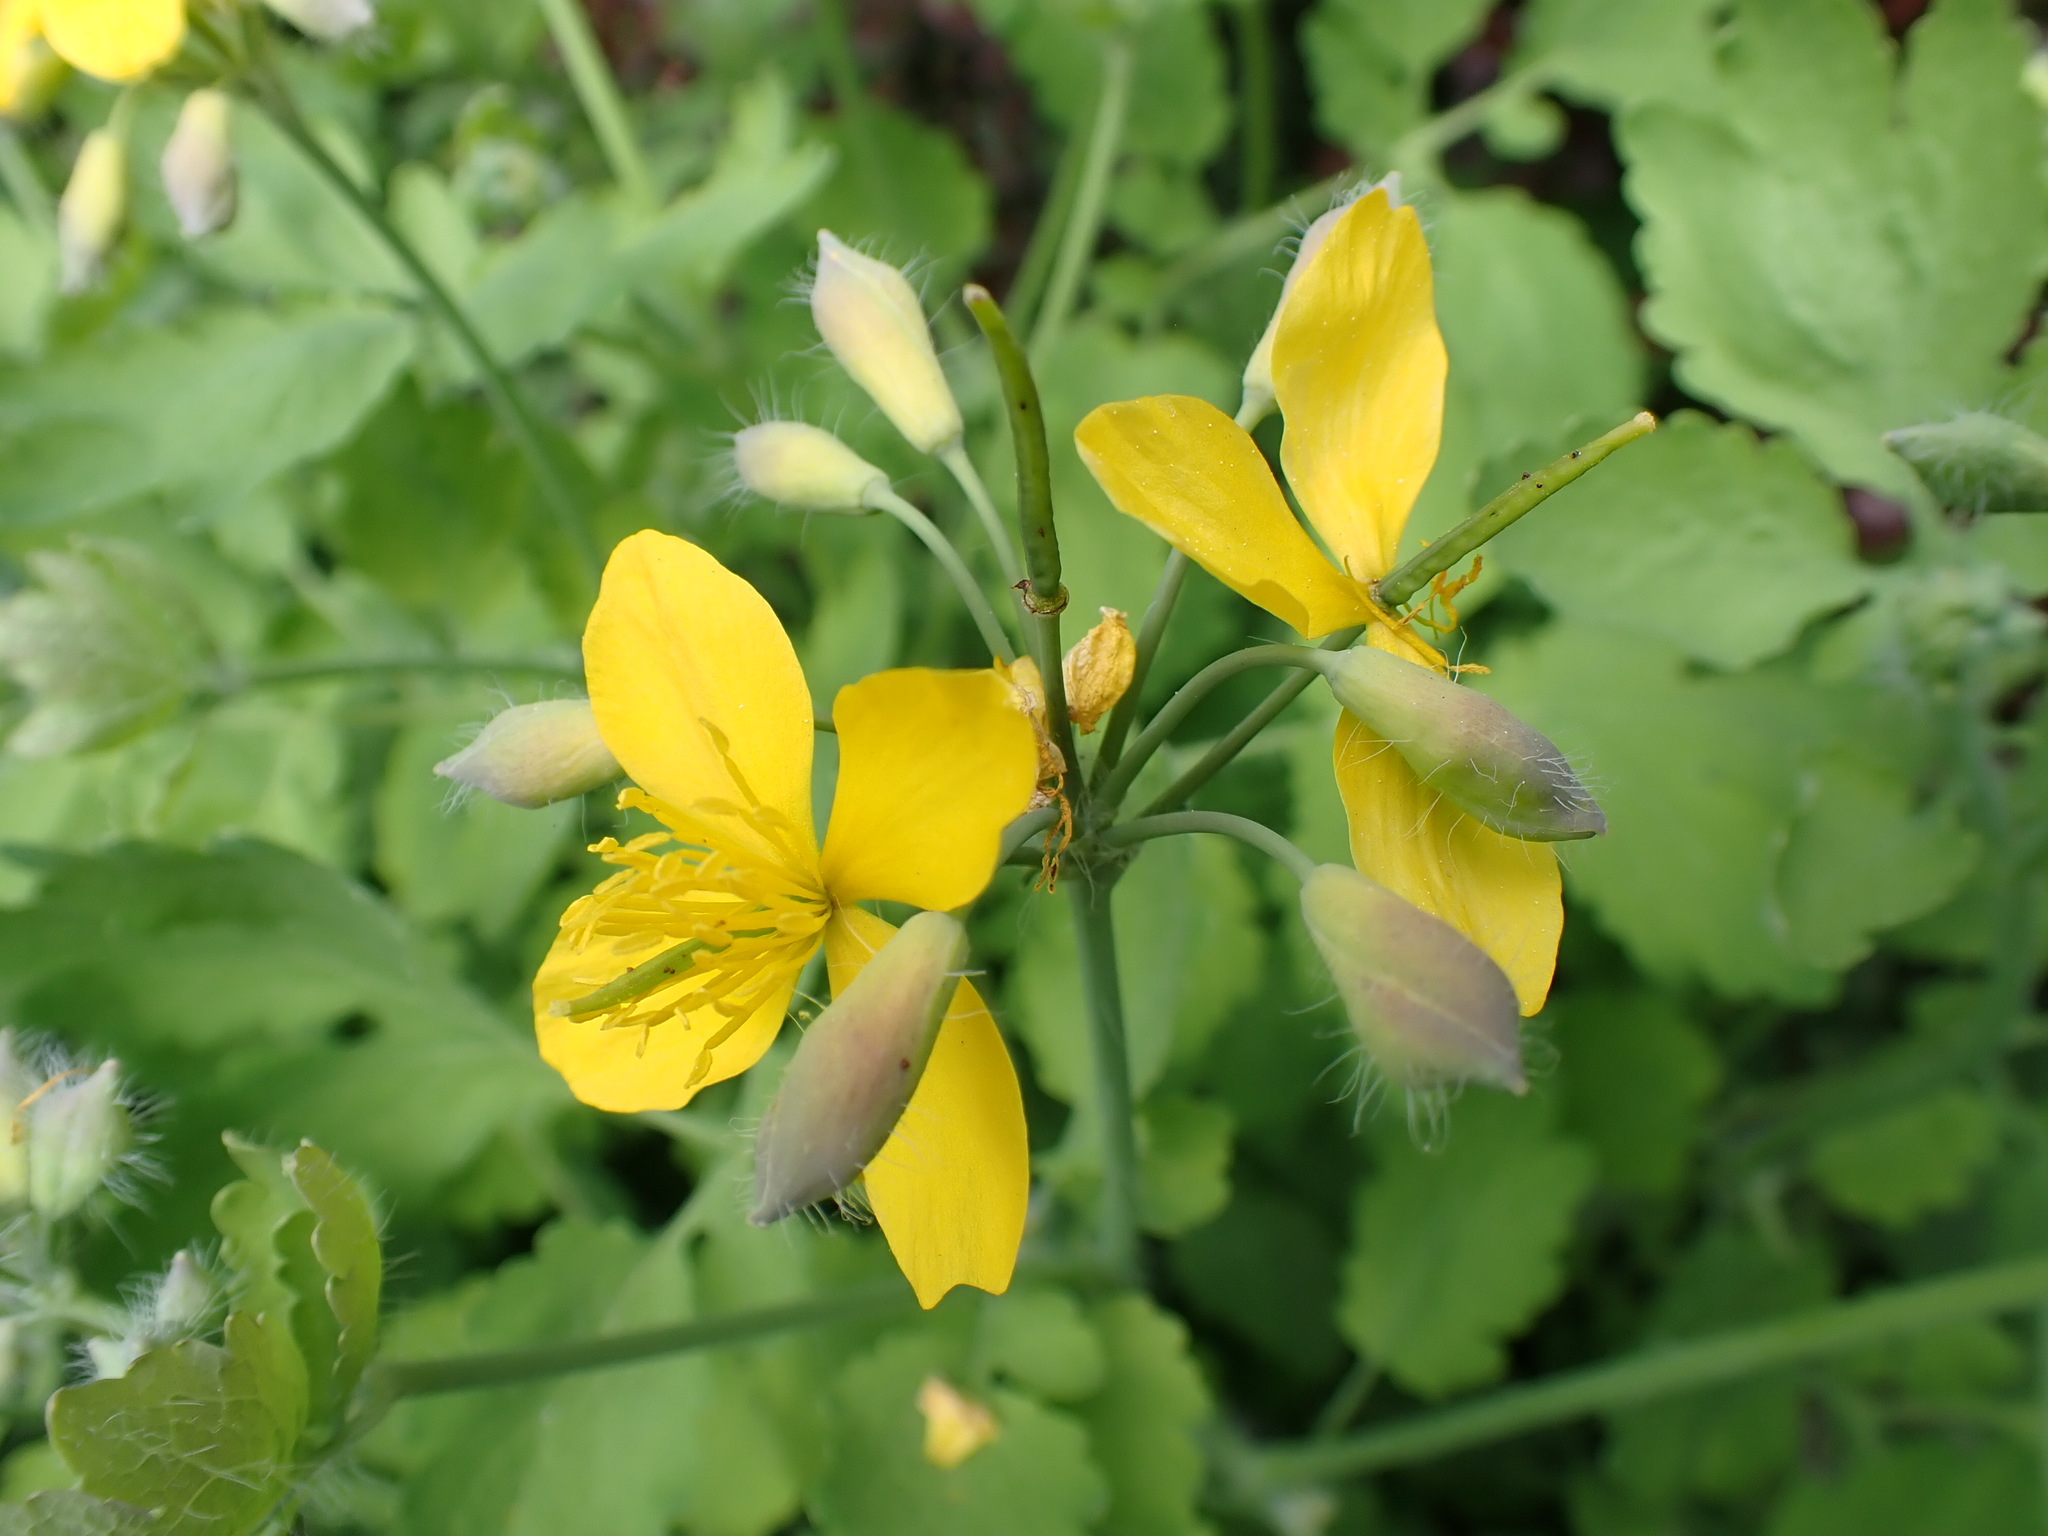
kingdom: Plantae
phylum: Tracheophyta
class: Magnoliopsida
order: Ranunculales
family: Papaveraceae
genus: Chelidonium
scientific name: Chelidonium majus
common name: Greater celandine
